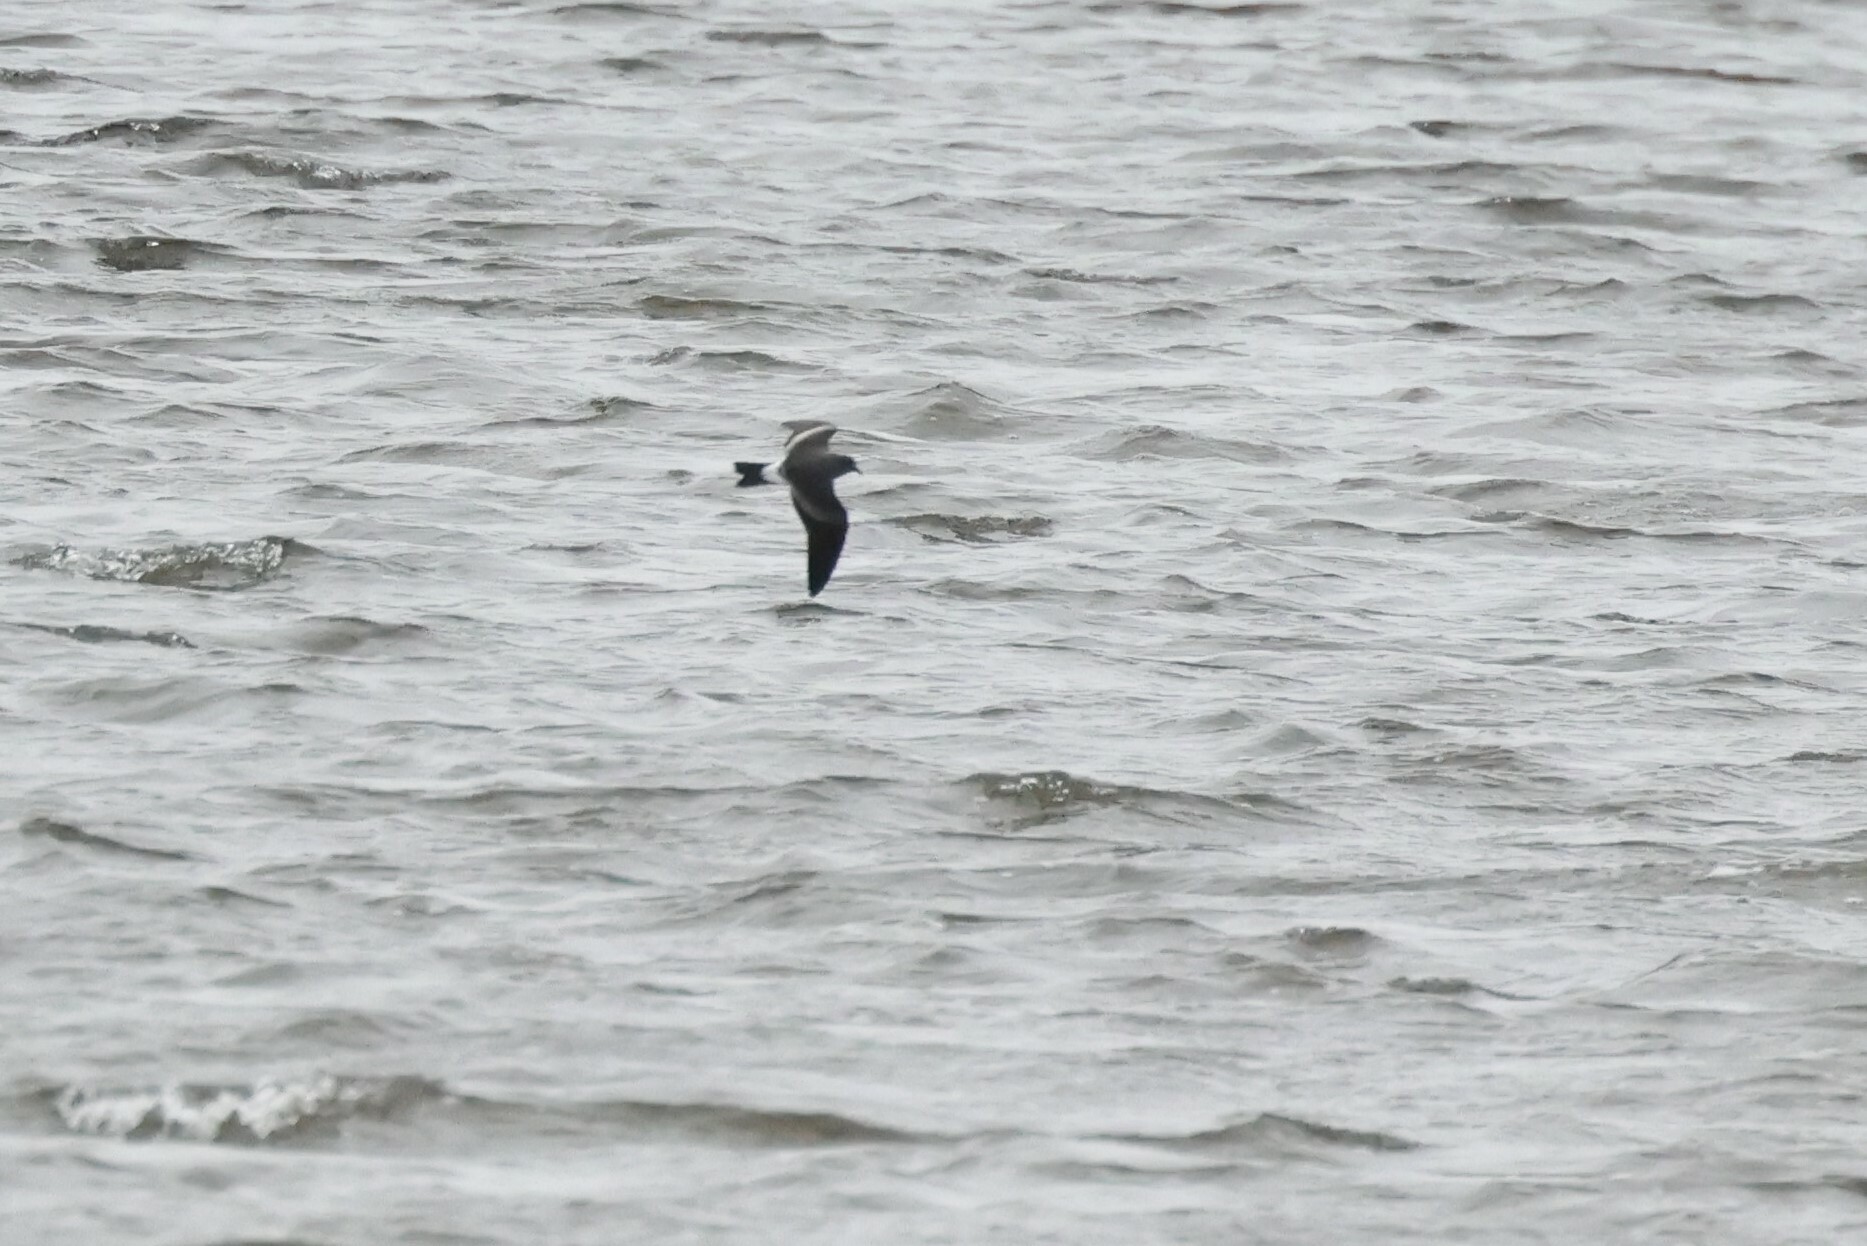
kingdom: Animalia
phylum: Chordata
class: Aves
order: Procellariiformes
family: Hydrobatidae
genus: Oceanodroma
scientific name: Oceanodroma leucorhoa
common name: Leach's storm-petrel
